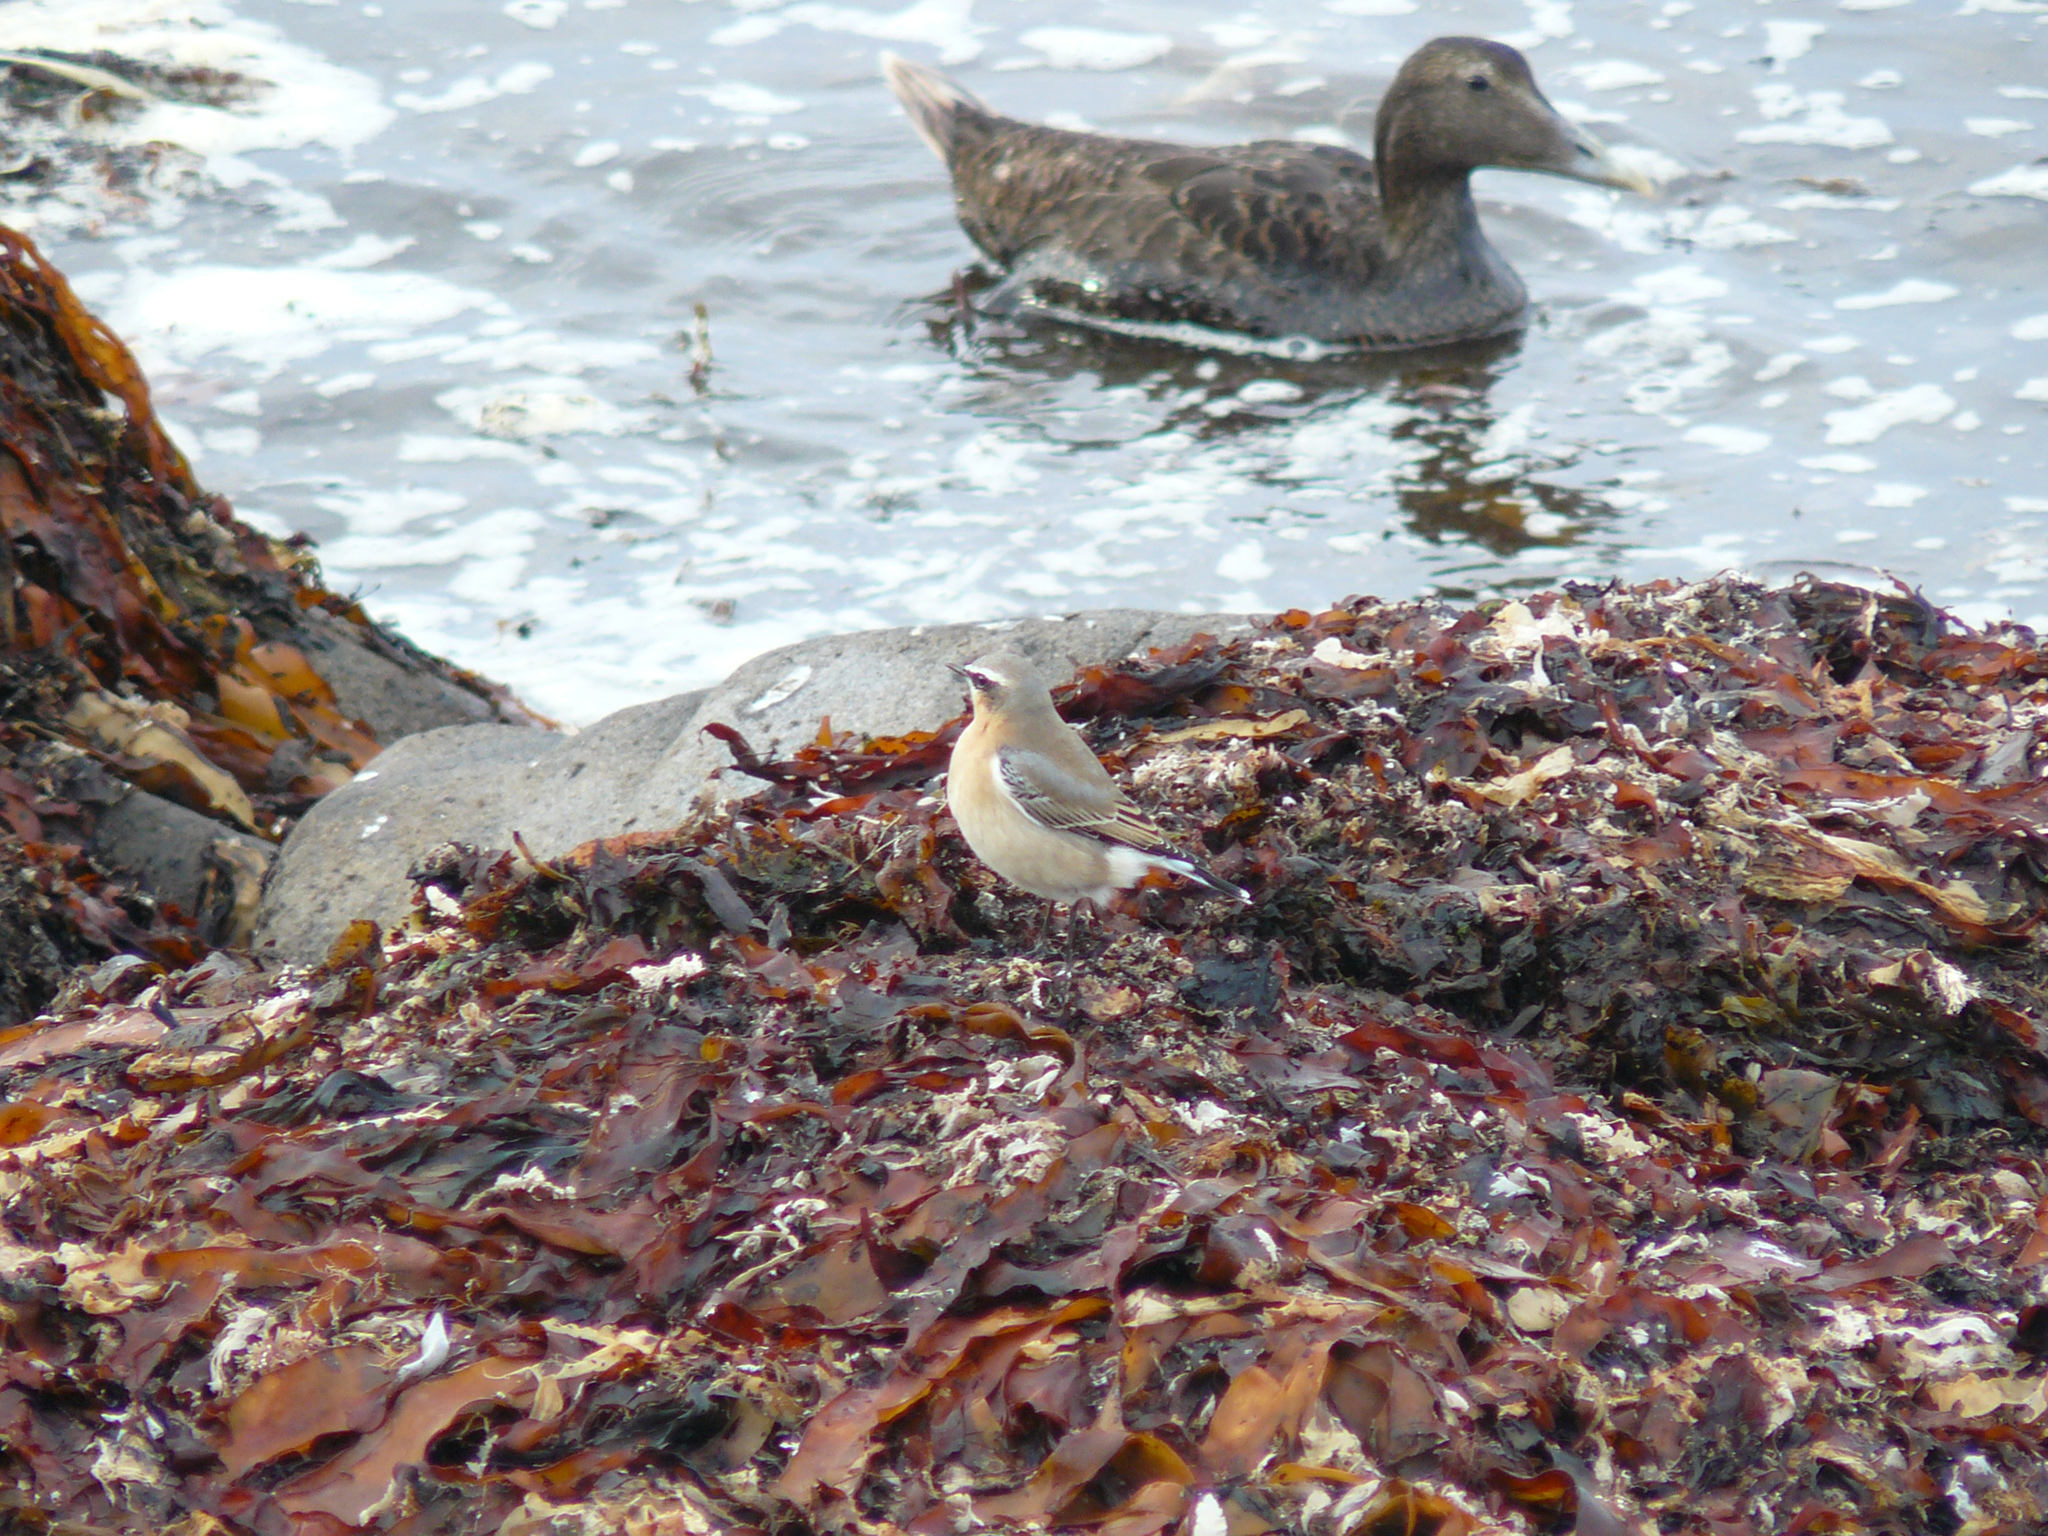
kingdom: Animalia
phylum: Chordata
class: Aves
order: Passeriformes
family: Muscicapidae
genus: Oenanthe
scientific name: Oenanthe oenanthe
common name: Northern wheatear
